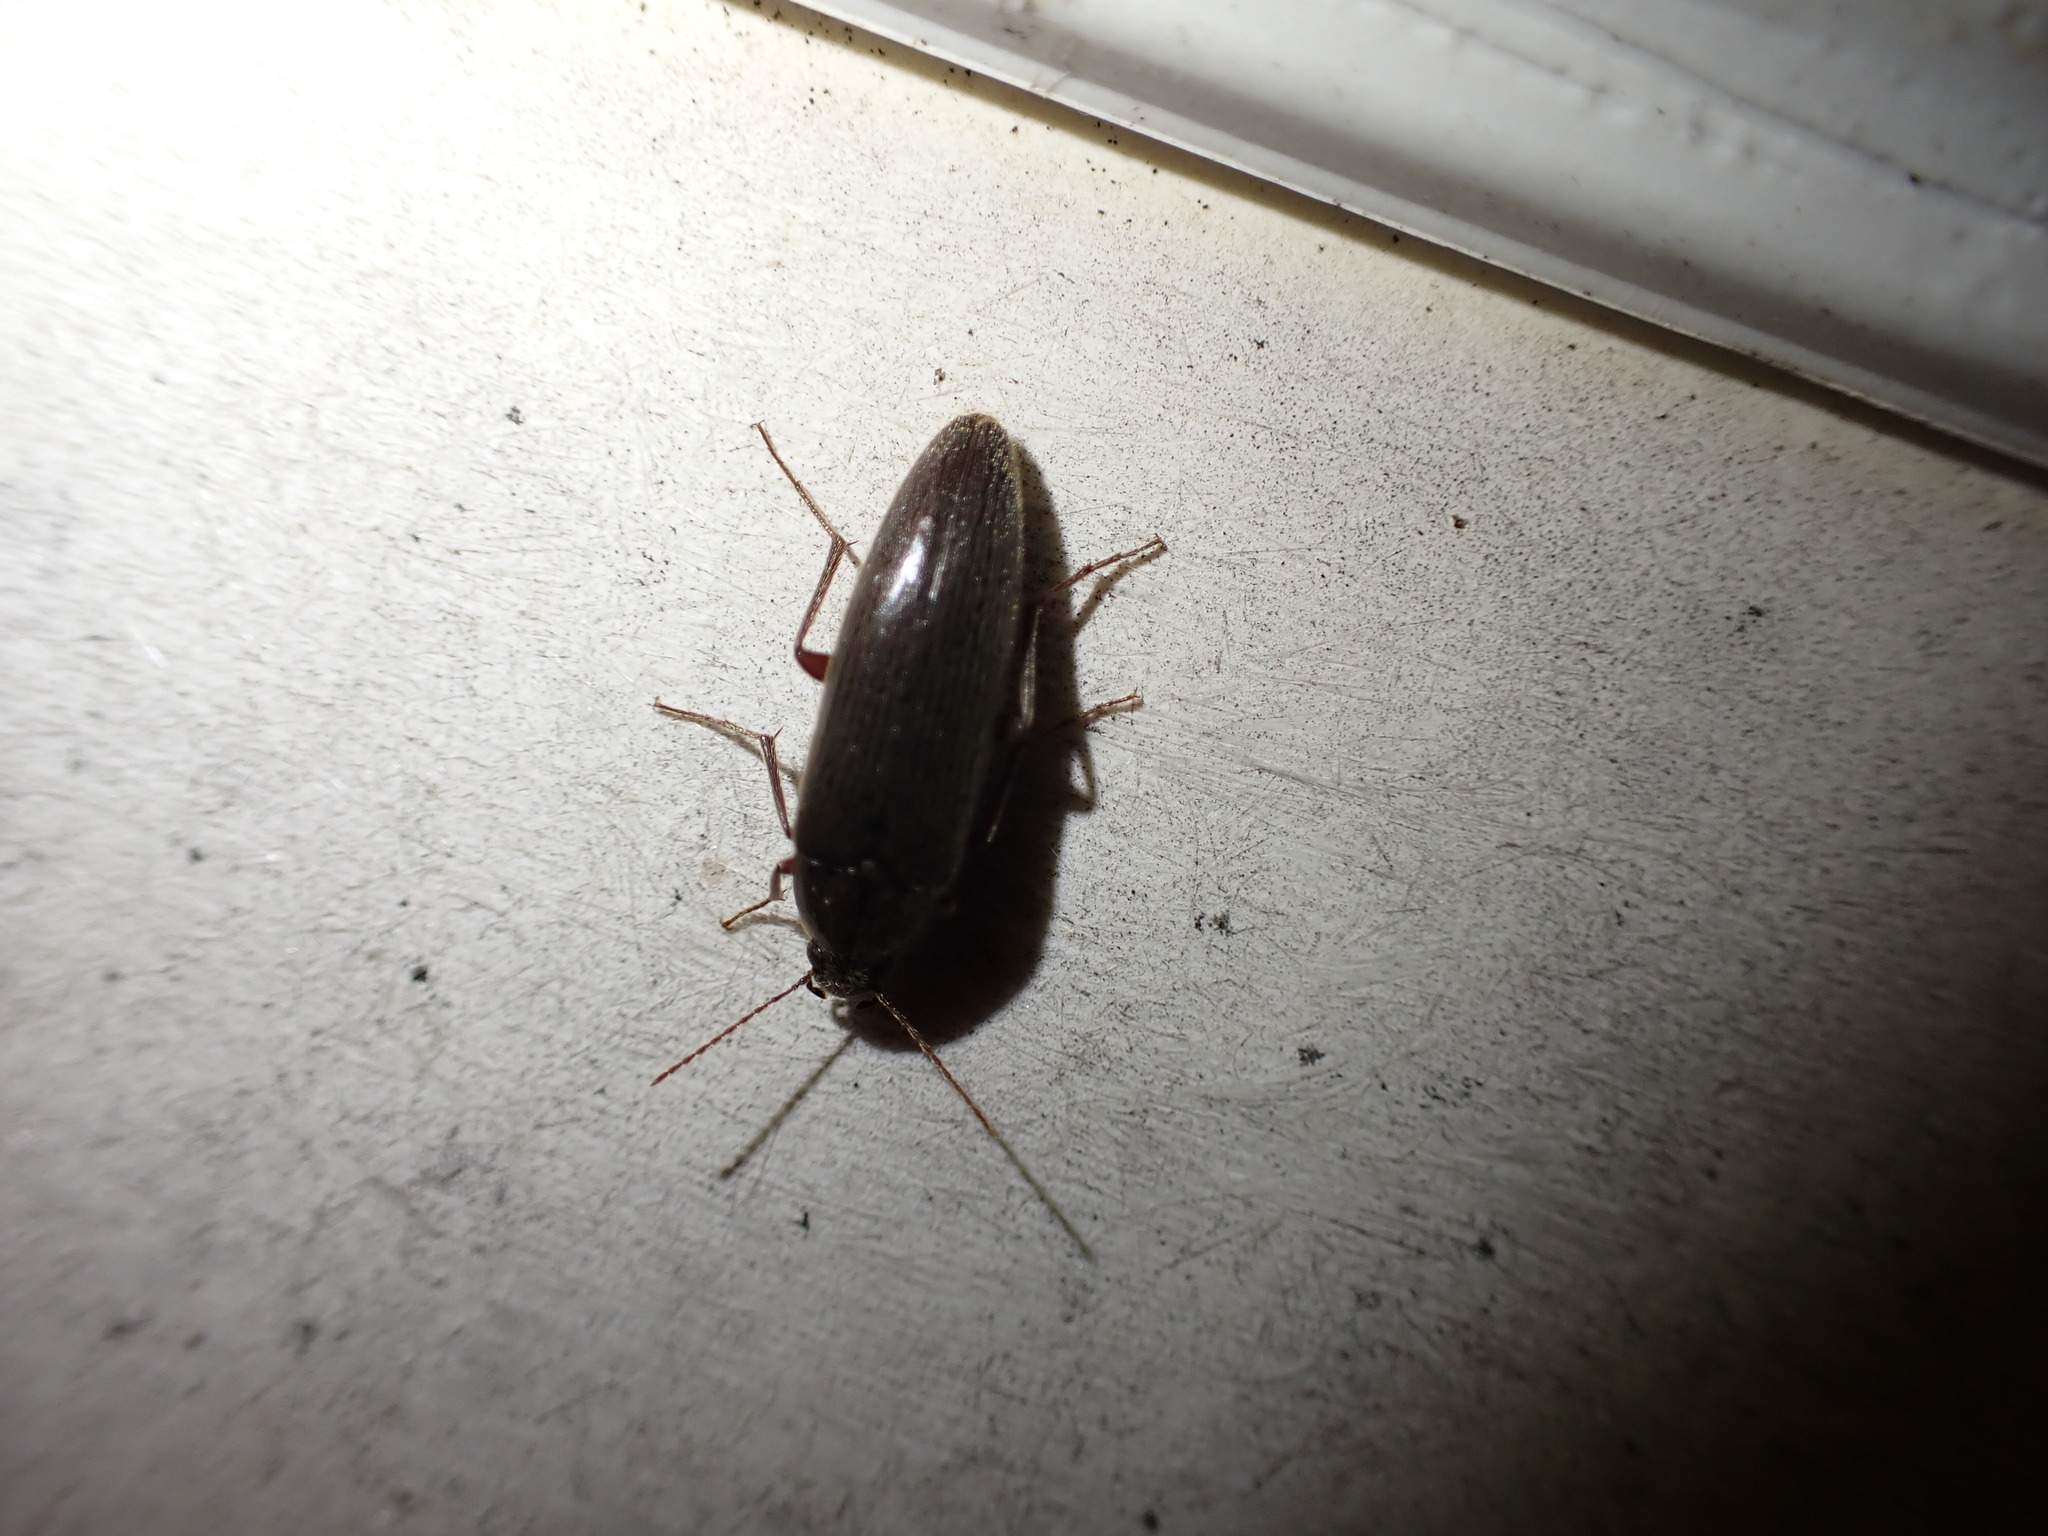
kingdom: Animalia
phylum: Arthropoda
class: Insecta
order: Coleoptera
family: Synchroidae
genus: Synchroa
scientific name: Synchroa punctata
